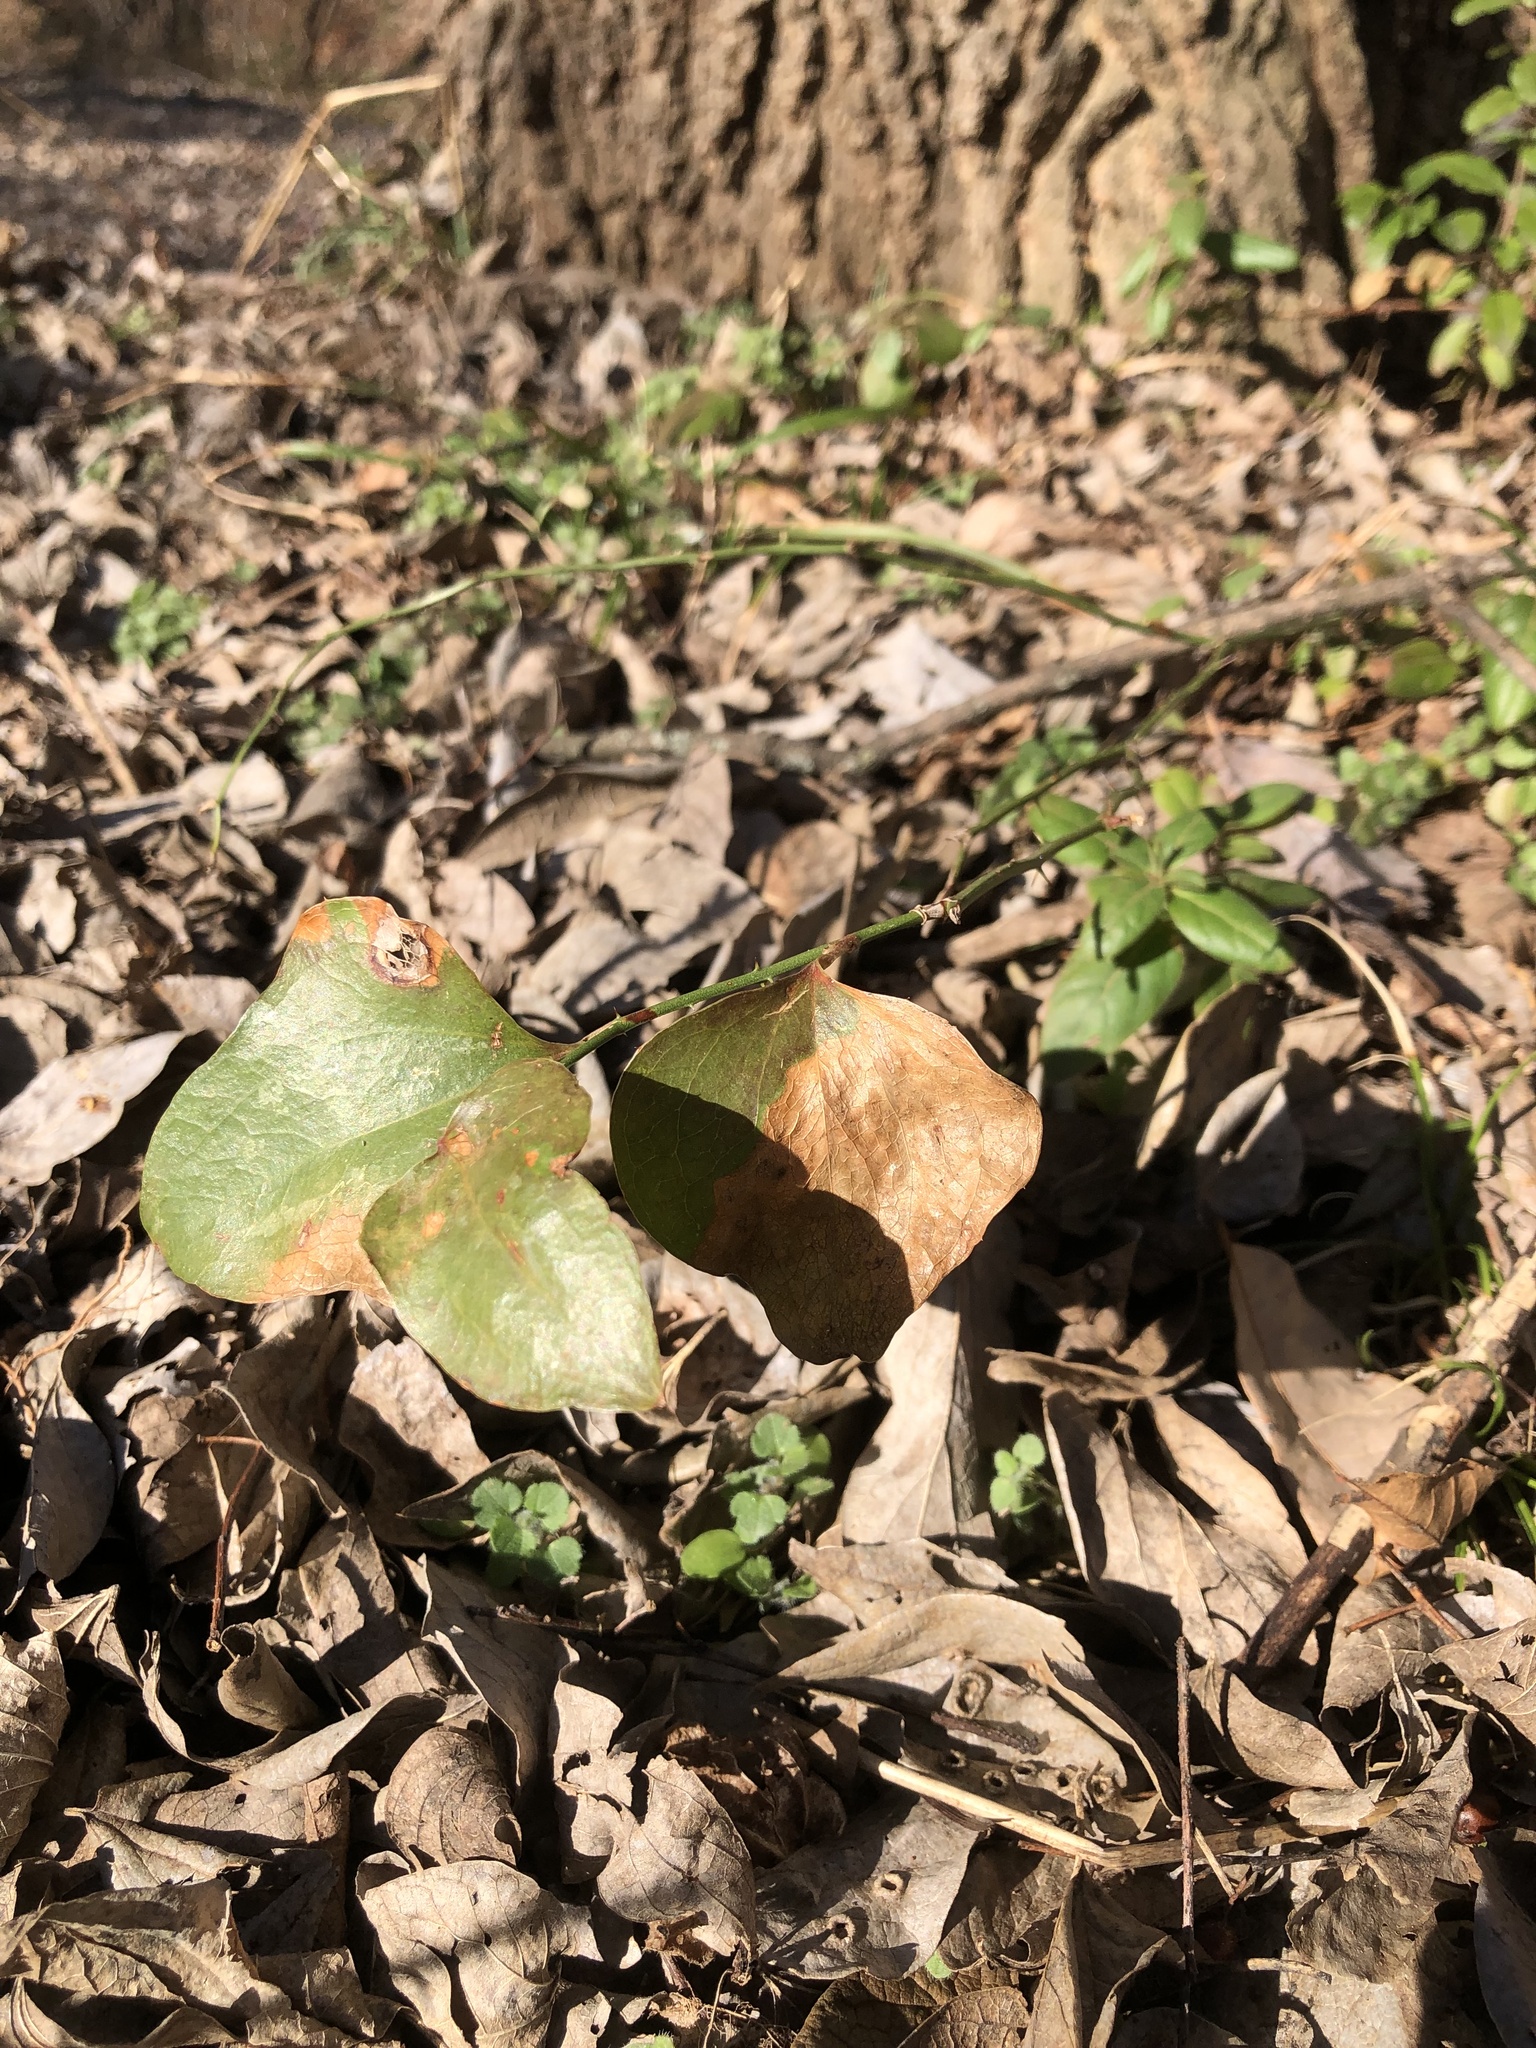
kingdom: Plantae
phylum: Tracheophyta
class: Liliopsida
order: Liliales
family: Smilacaceae
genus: Smilax
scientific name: Smilax bona-nox
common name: Catbrier
